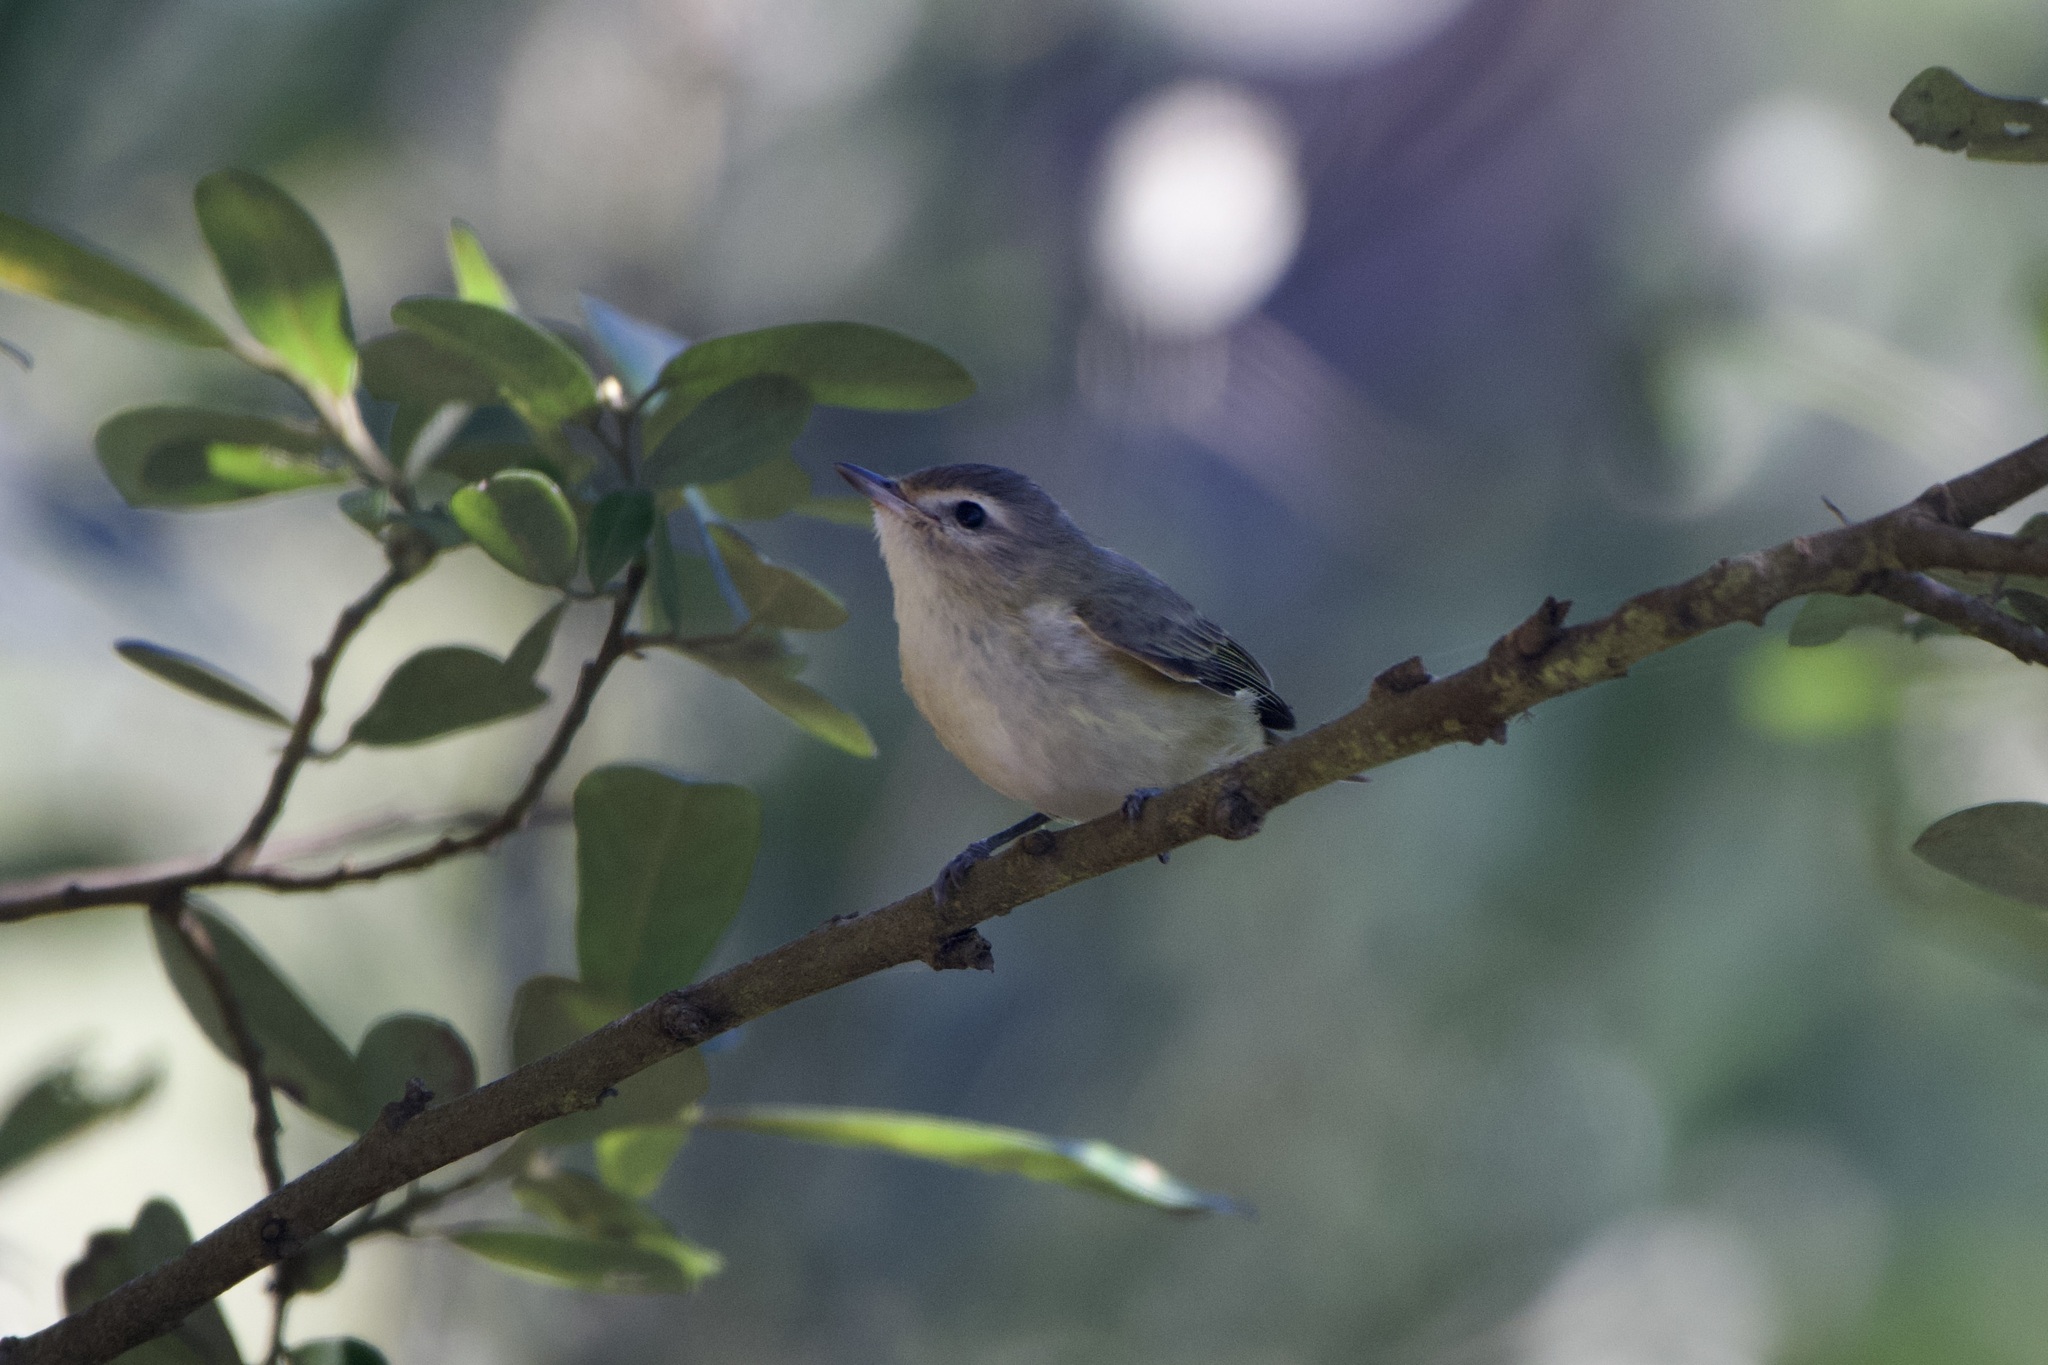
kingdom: Animalia
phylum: Chordata
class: Aves
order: Passeriformes
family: Vireonidae
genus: Vireo
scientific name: Vireo gilvus
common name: Warbling vireo
